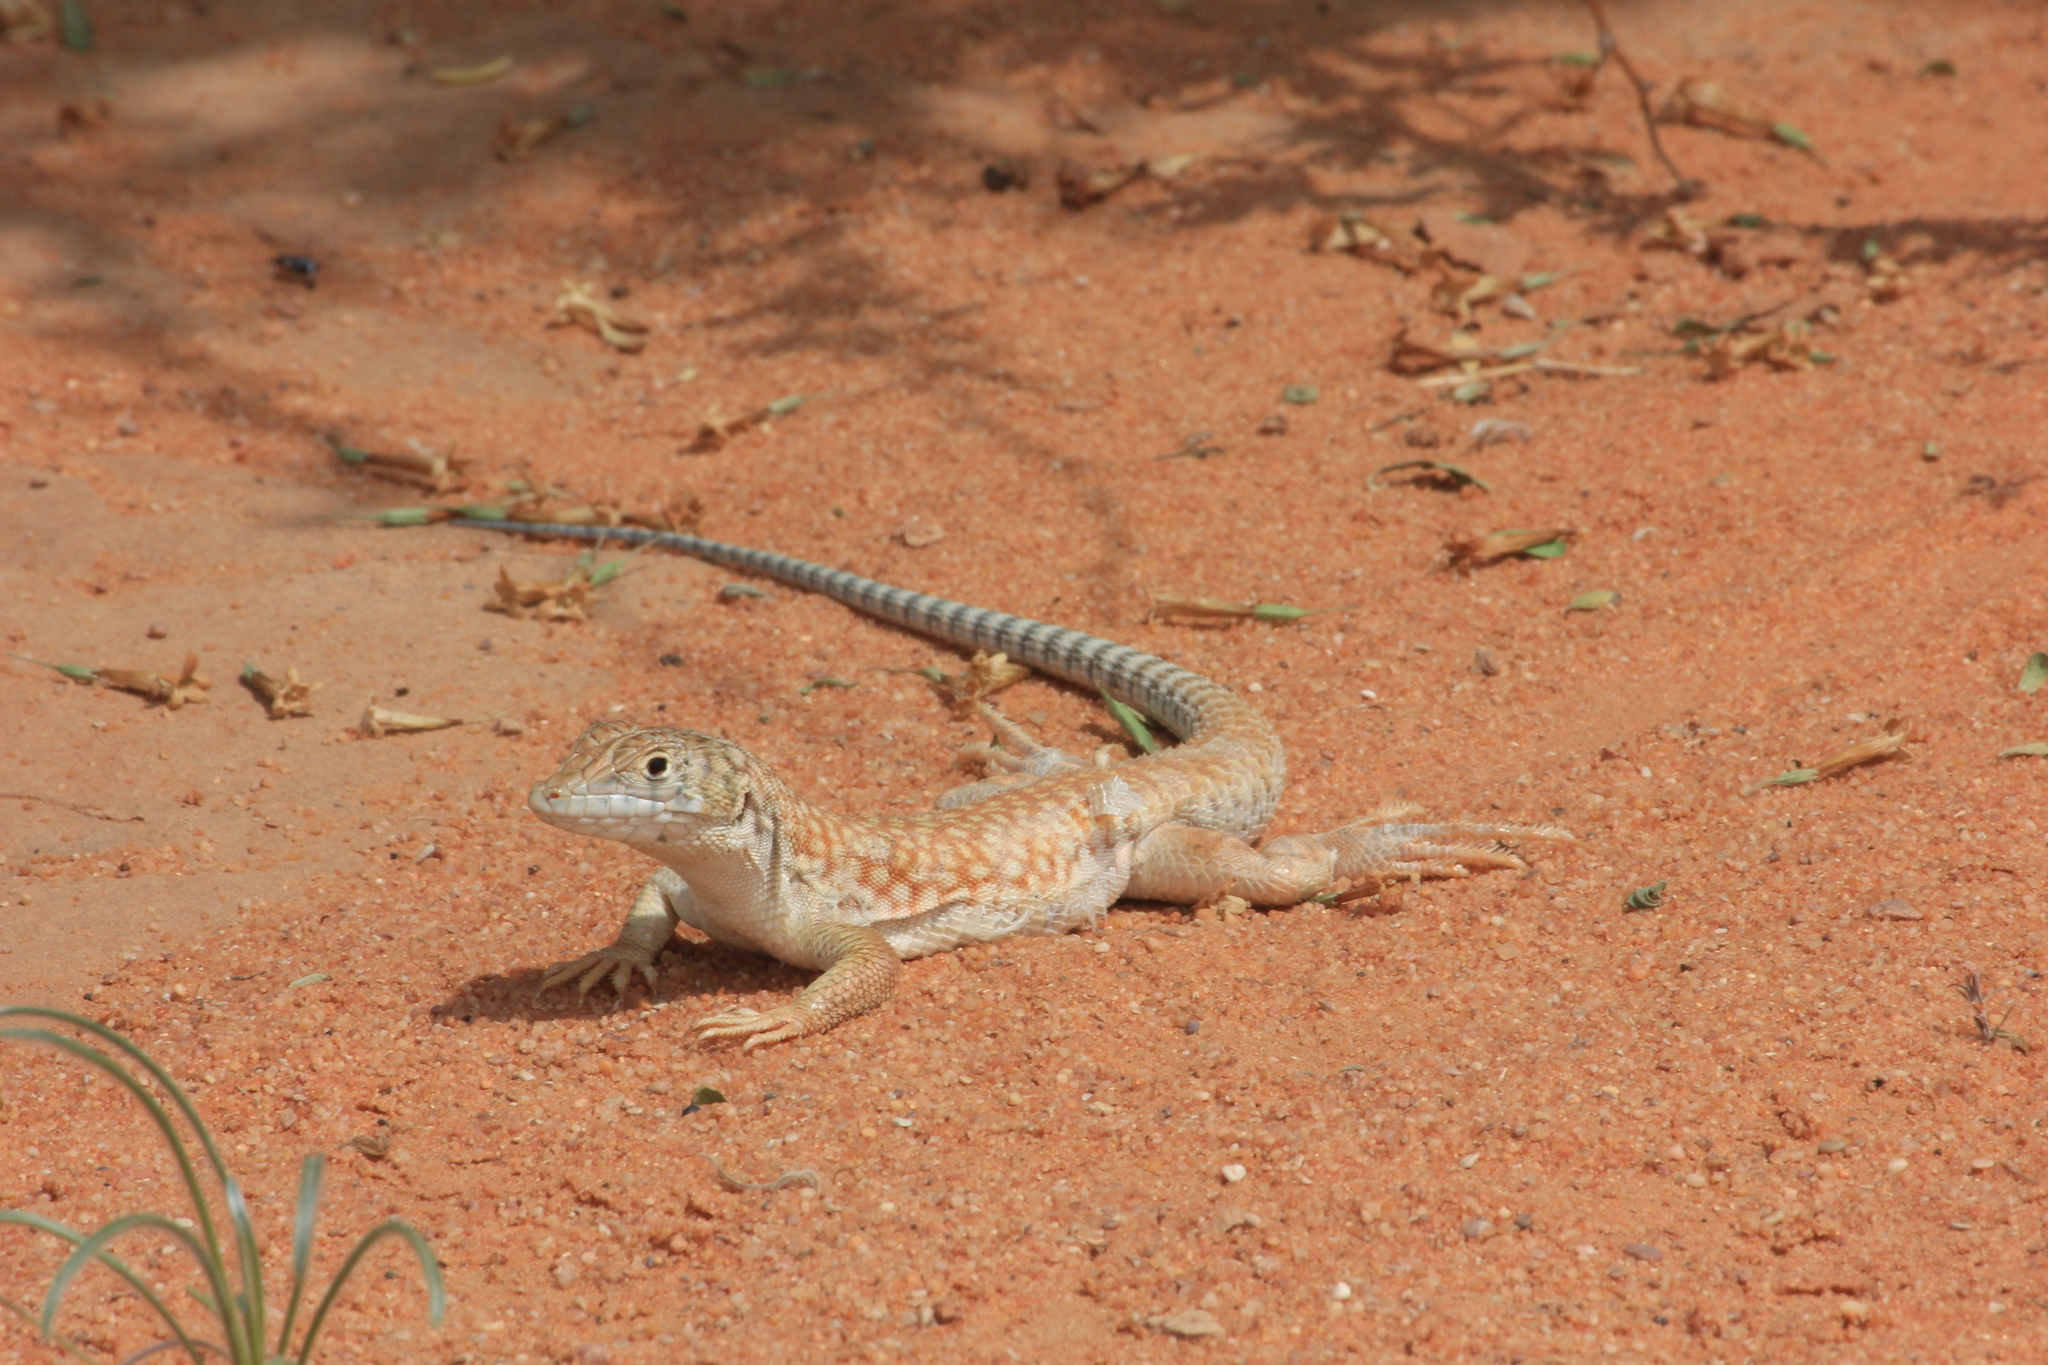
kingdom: Animalia
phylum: Chordata
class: Squamata
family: Lacertidae
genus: Acanthodactylus
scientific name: Acanthodactylus schmidti
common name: Schmidt's fringe-toed lizard
